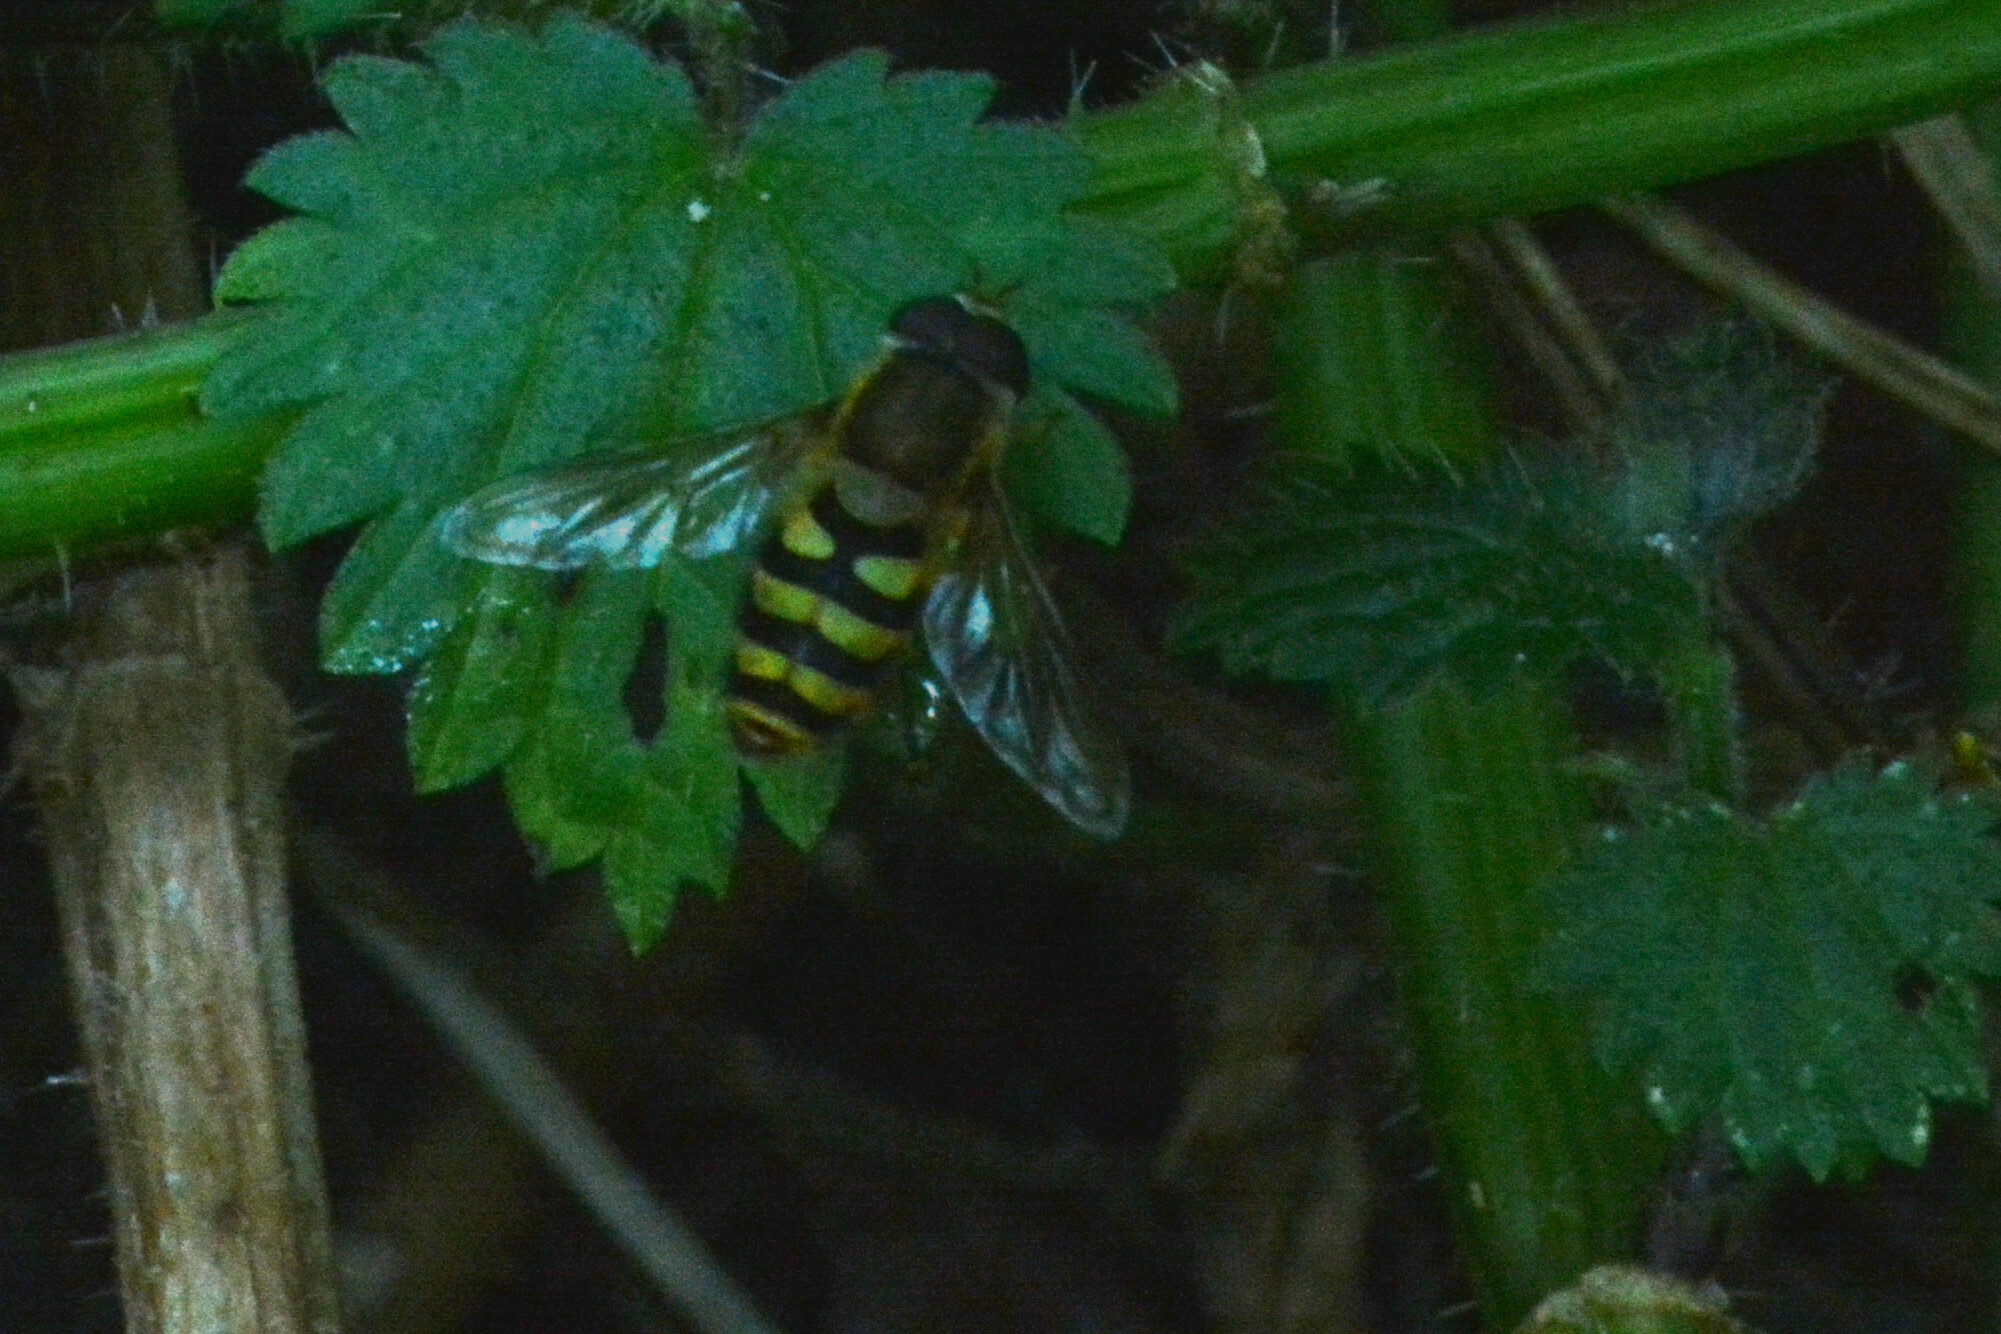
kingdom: Animalia
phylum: Arthropoda
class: Insecta
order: Diptera
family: Syrphidae
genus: Syrphus
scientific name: Syrphus
